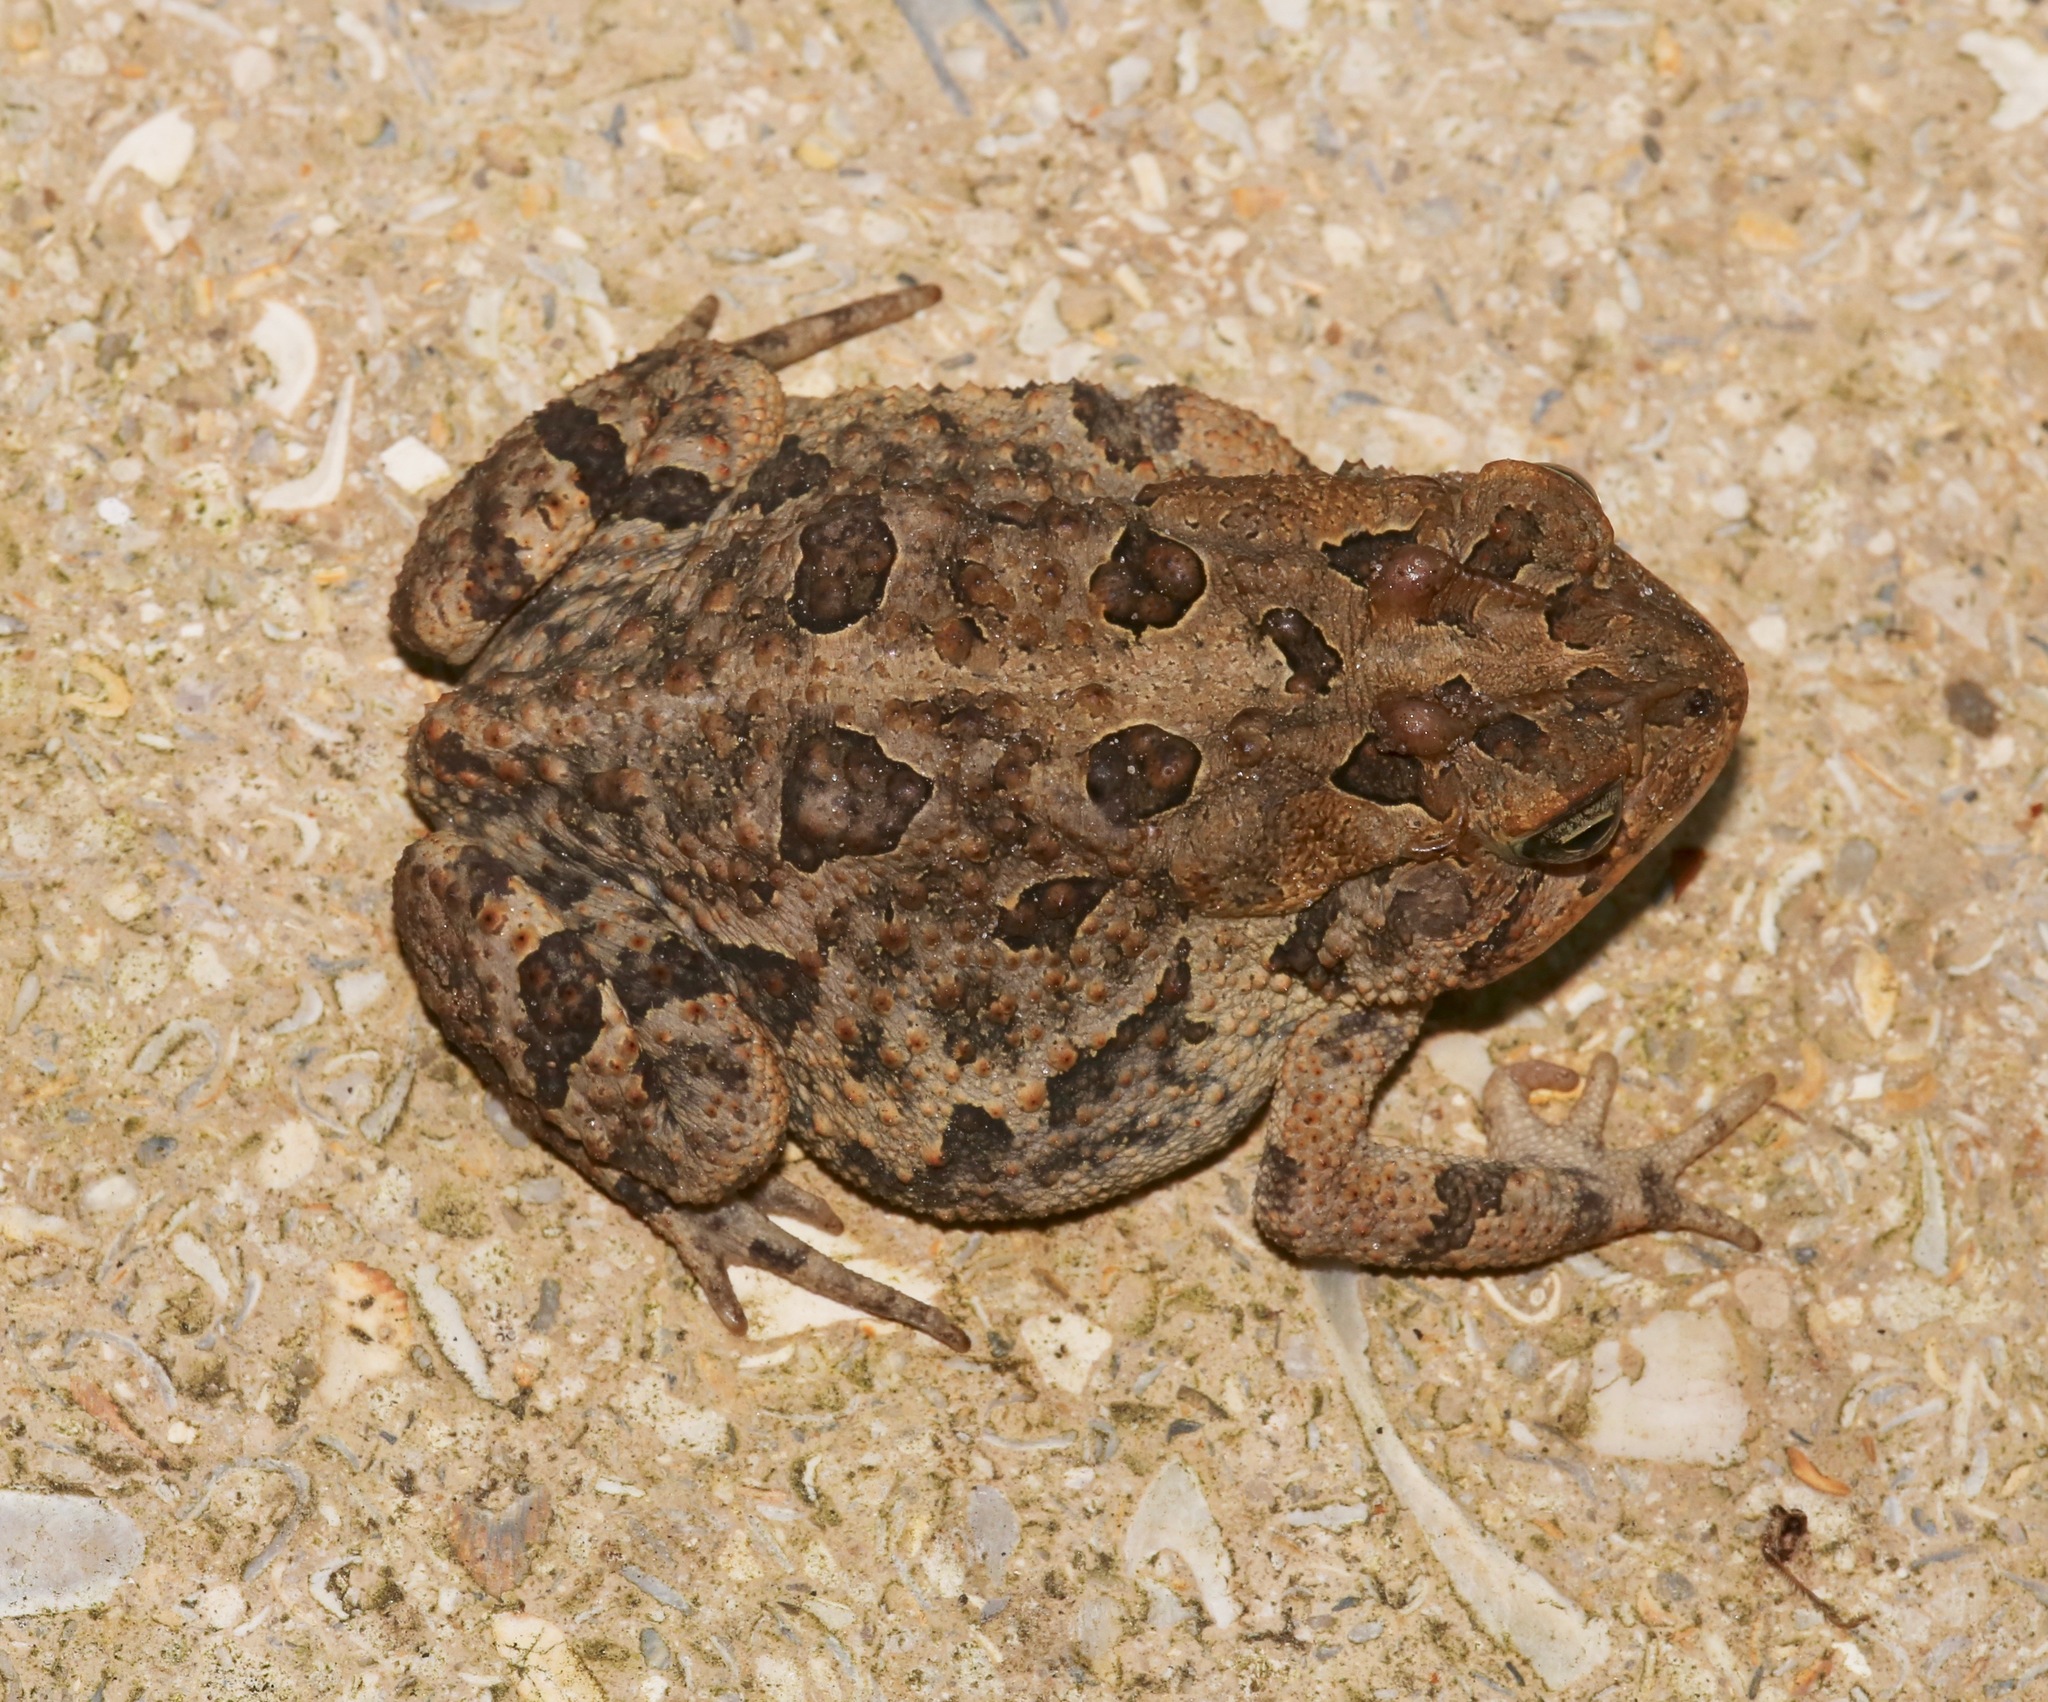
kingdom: Animalia
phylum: Chordata
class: Amphibia
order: Anura
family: Bufonidae
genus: Anaxyrus
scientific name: Anaxyrus terrestris
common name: Southern toad
